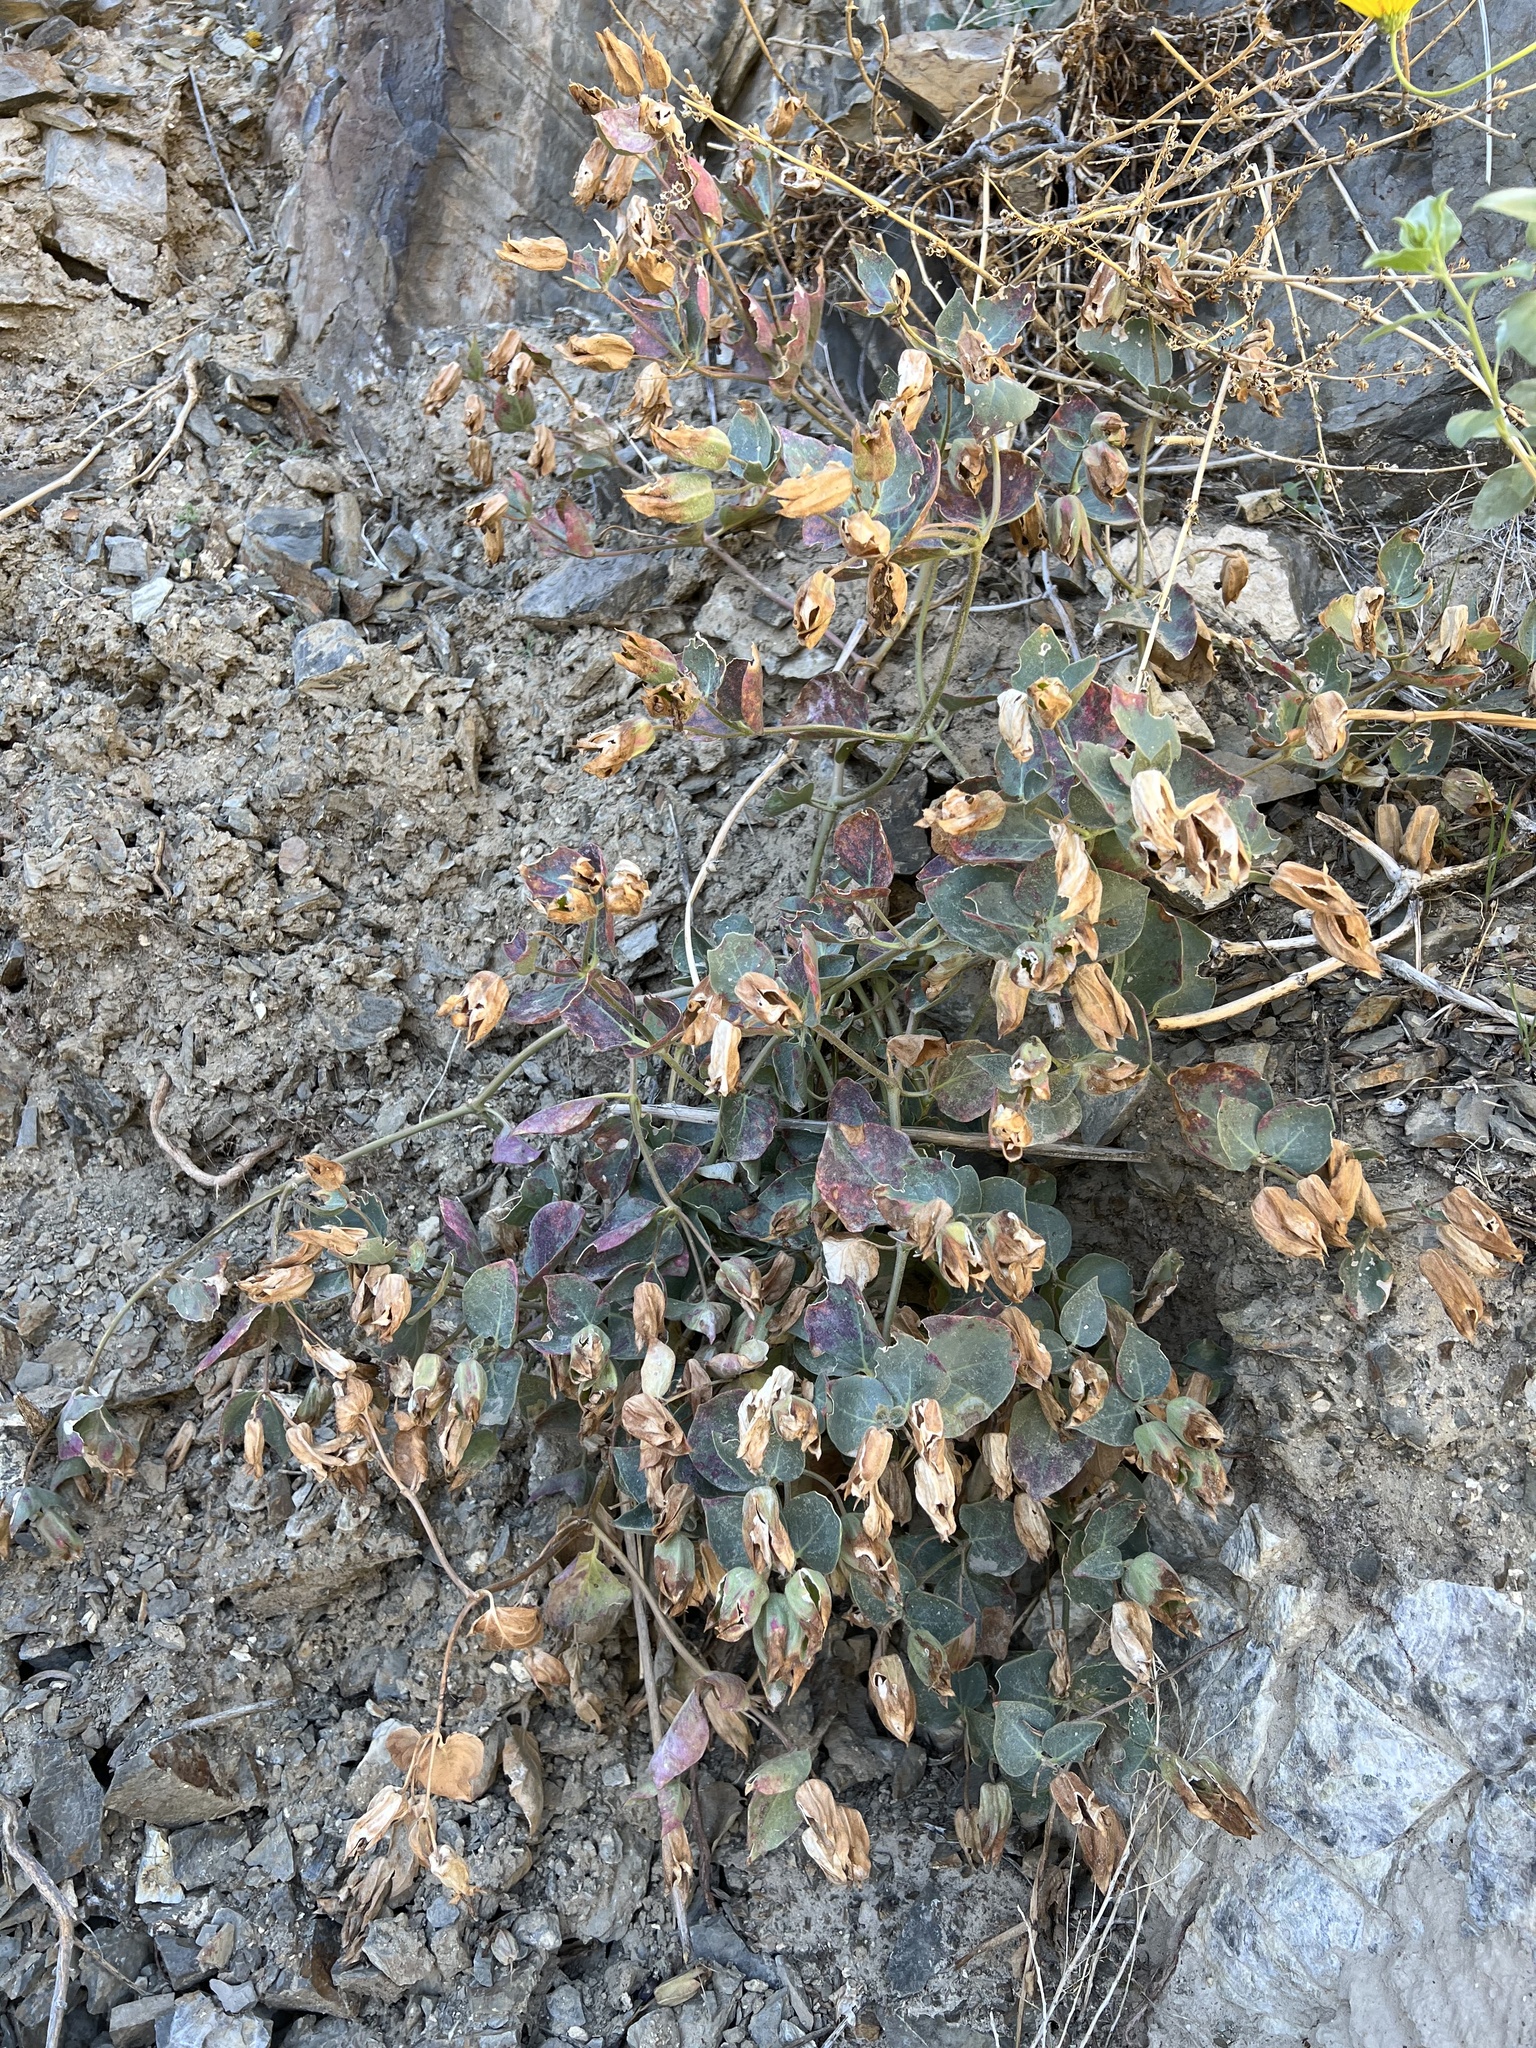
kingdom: Plantae
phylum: Tracheophyta
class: Magnoliopsida
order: Caryophyllales
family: Nyctaginaceae
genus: Mirabilis
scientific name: Mirabilis multiflora
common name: Froebel's four-o'clock
